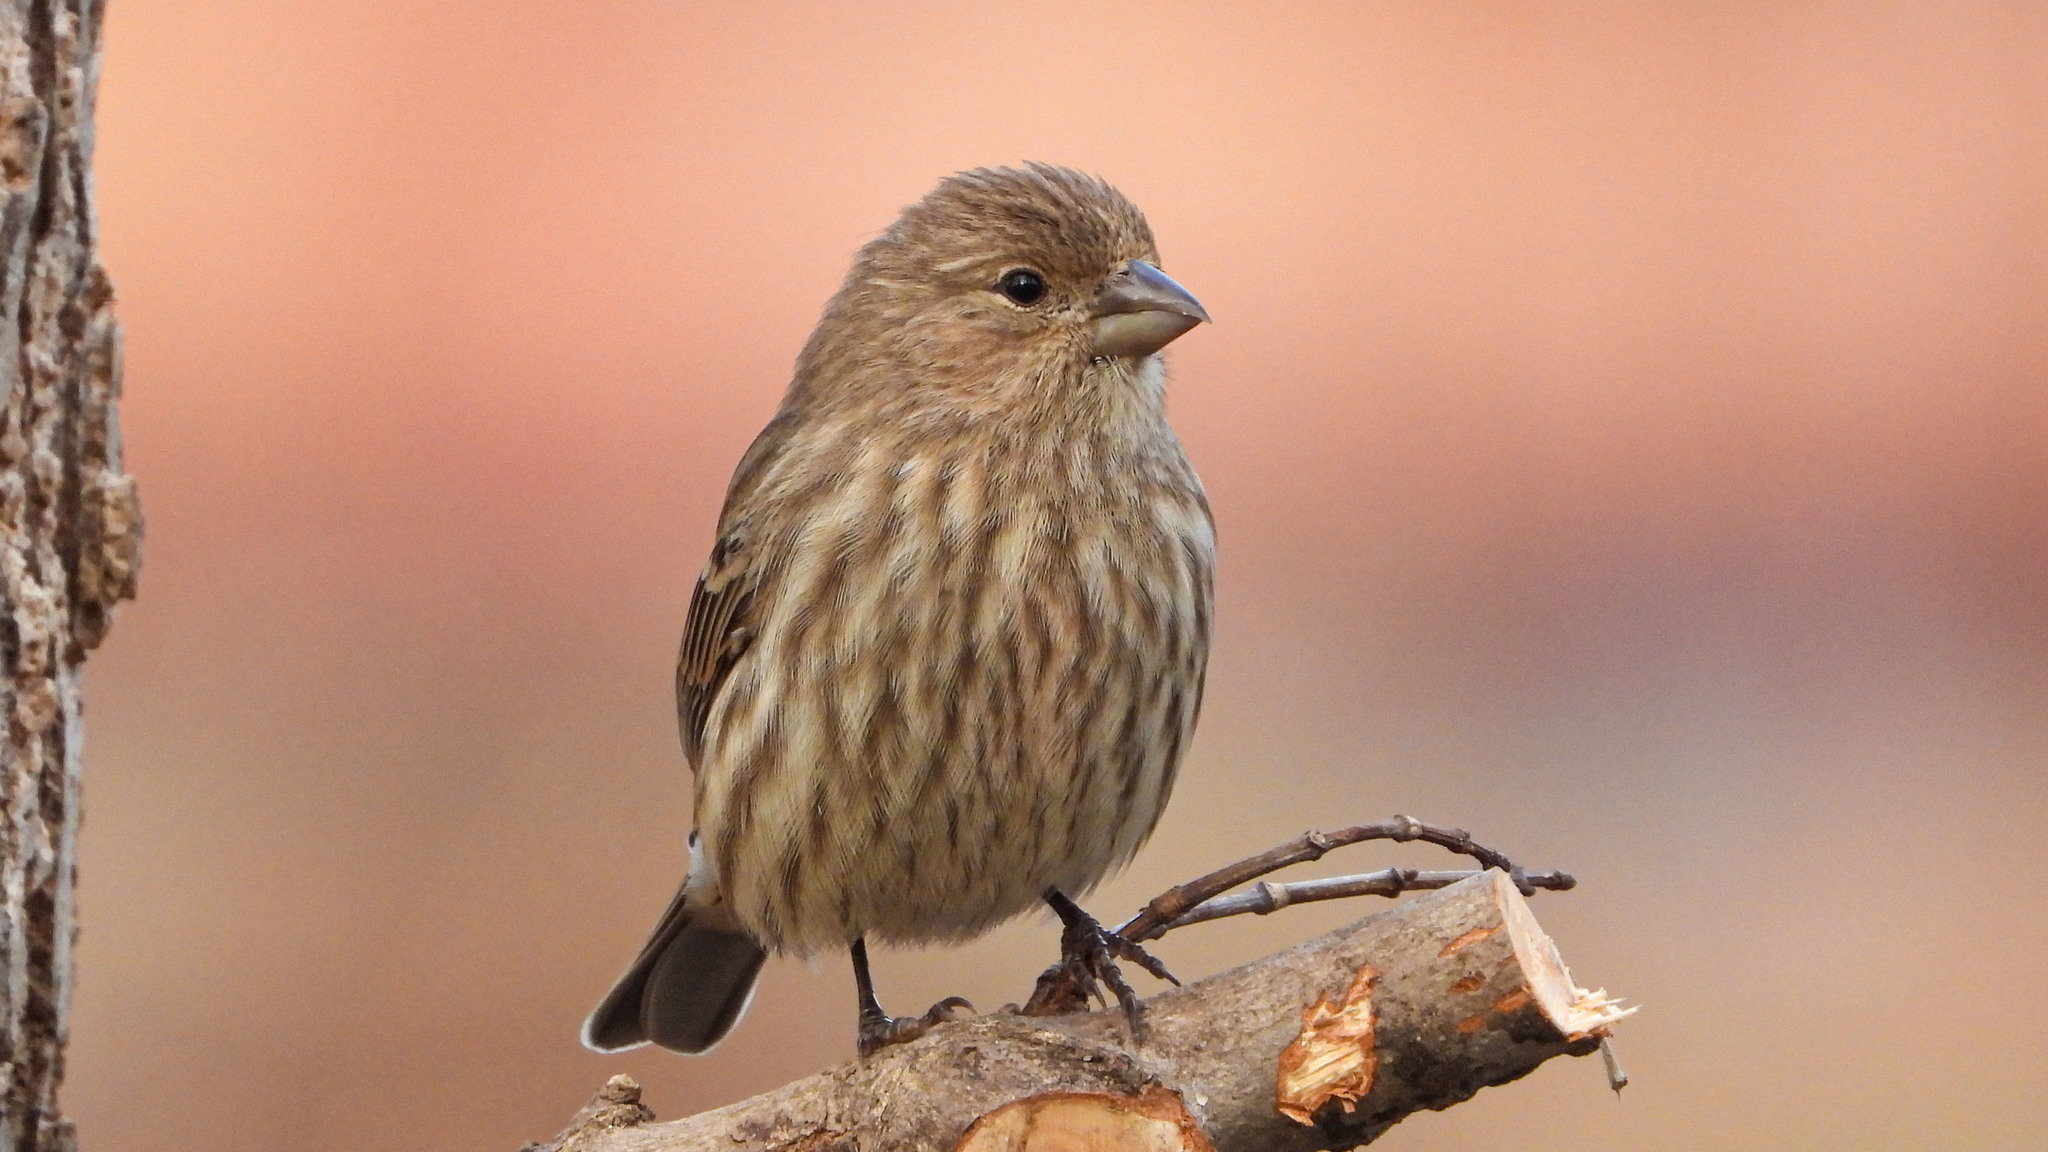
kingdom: Animalia
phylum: Chordata
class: Aves
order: Passeriformes
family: Fringillidae
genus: Haemorhous
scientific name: Haemorhous mexicanus
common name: House finch
